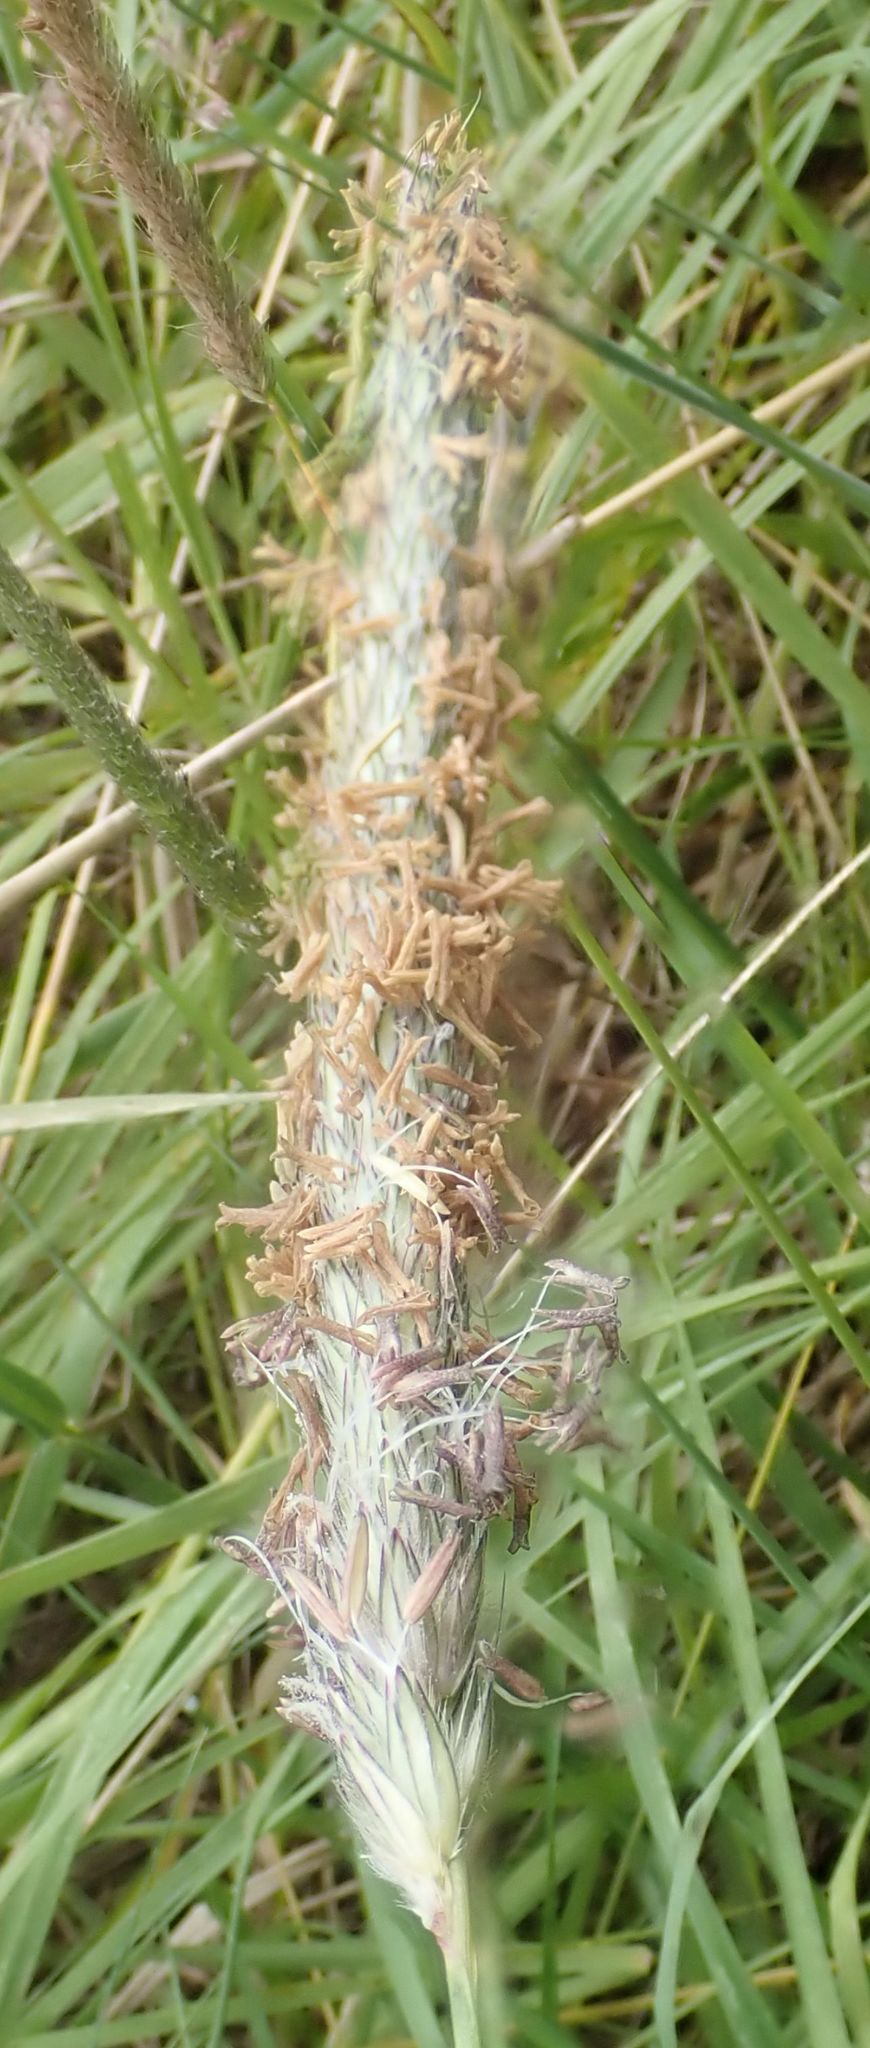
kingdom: Plantae
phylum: Tracheophyta
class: Liliopsida
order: Poales
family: Poaceae
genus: Alopecurus
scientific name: Alopecurus pratensis
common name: Meadow foxtail
